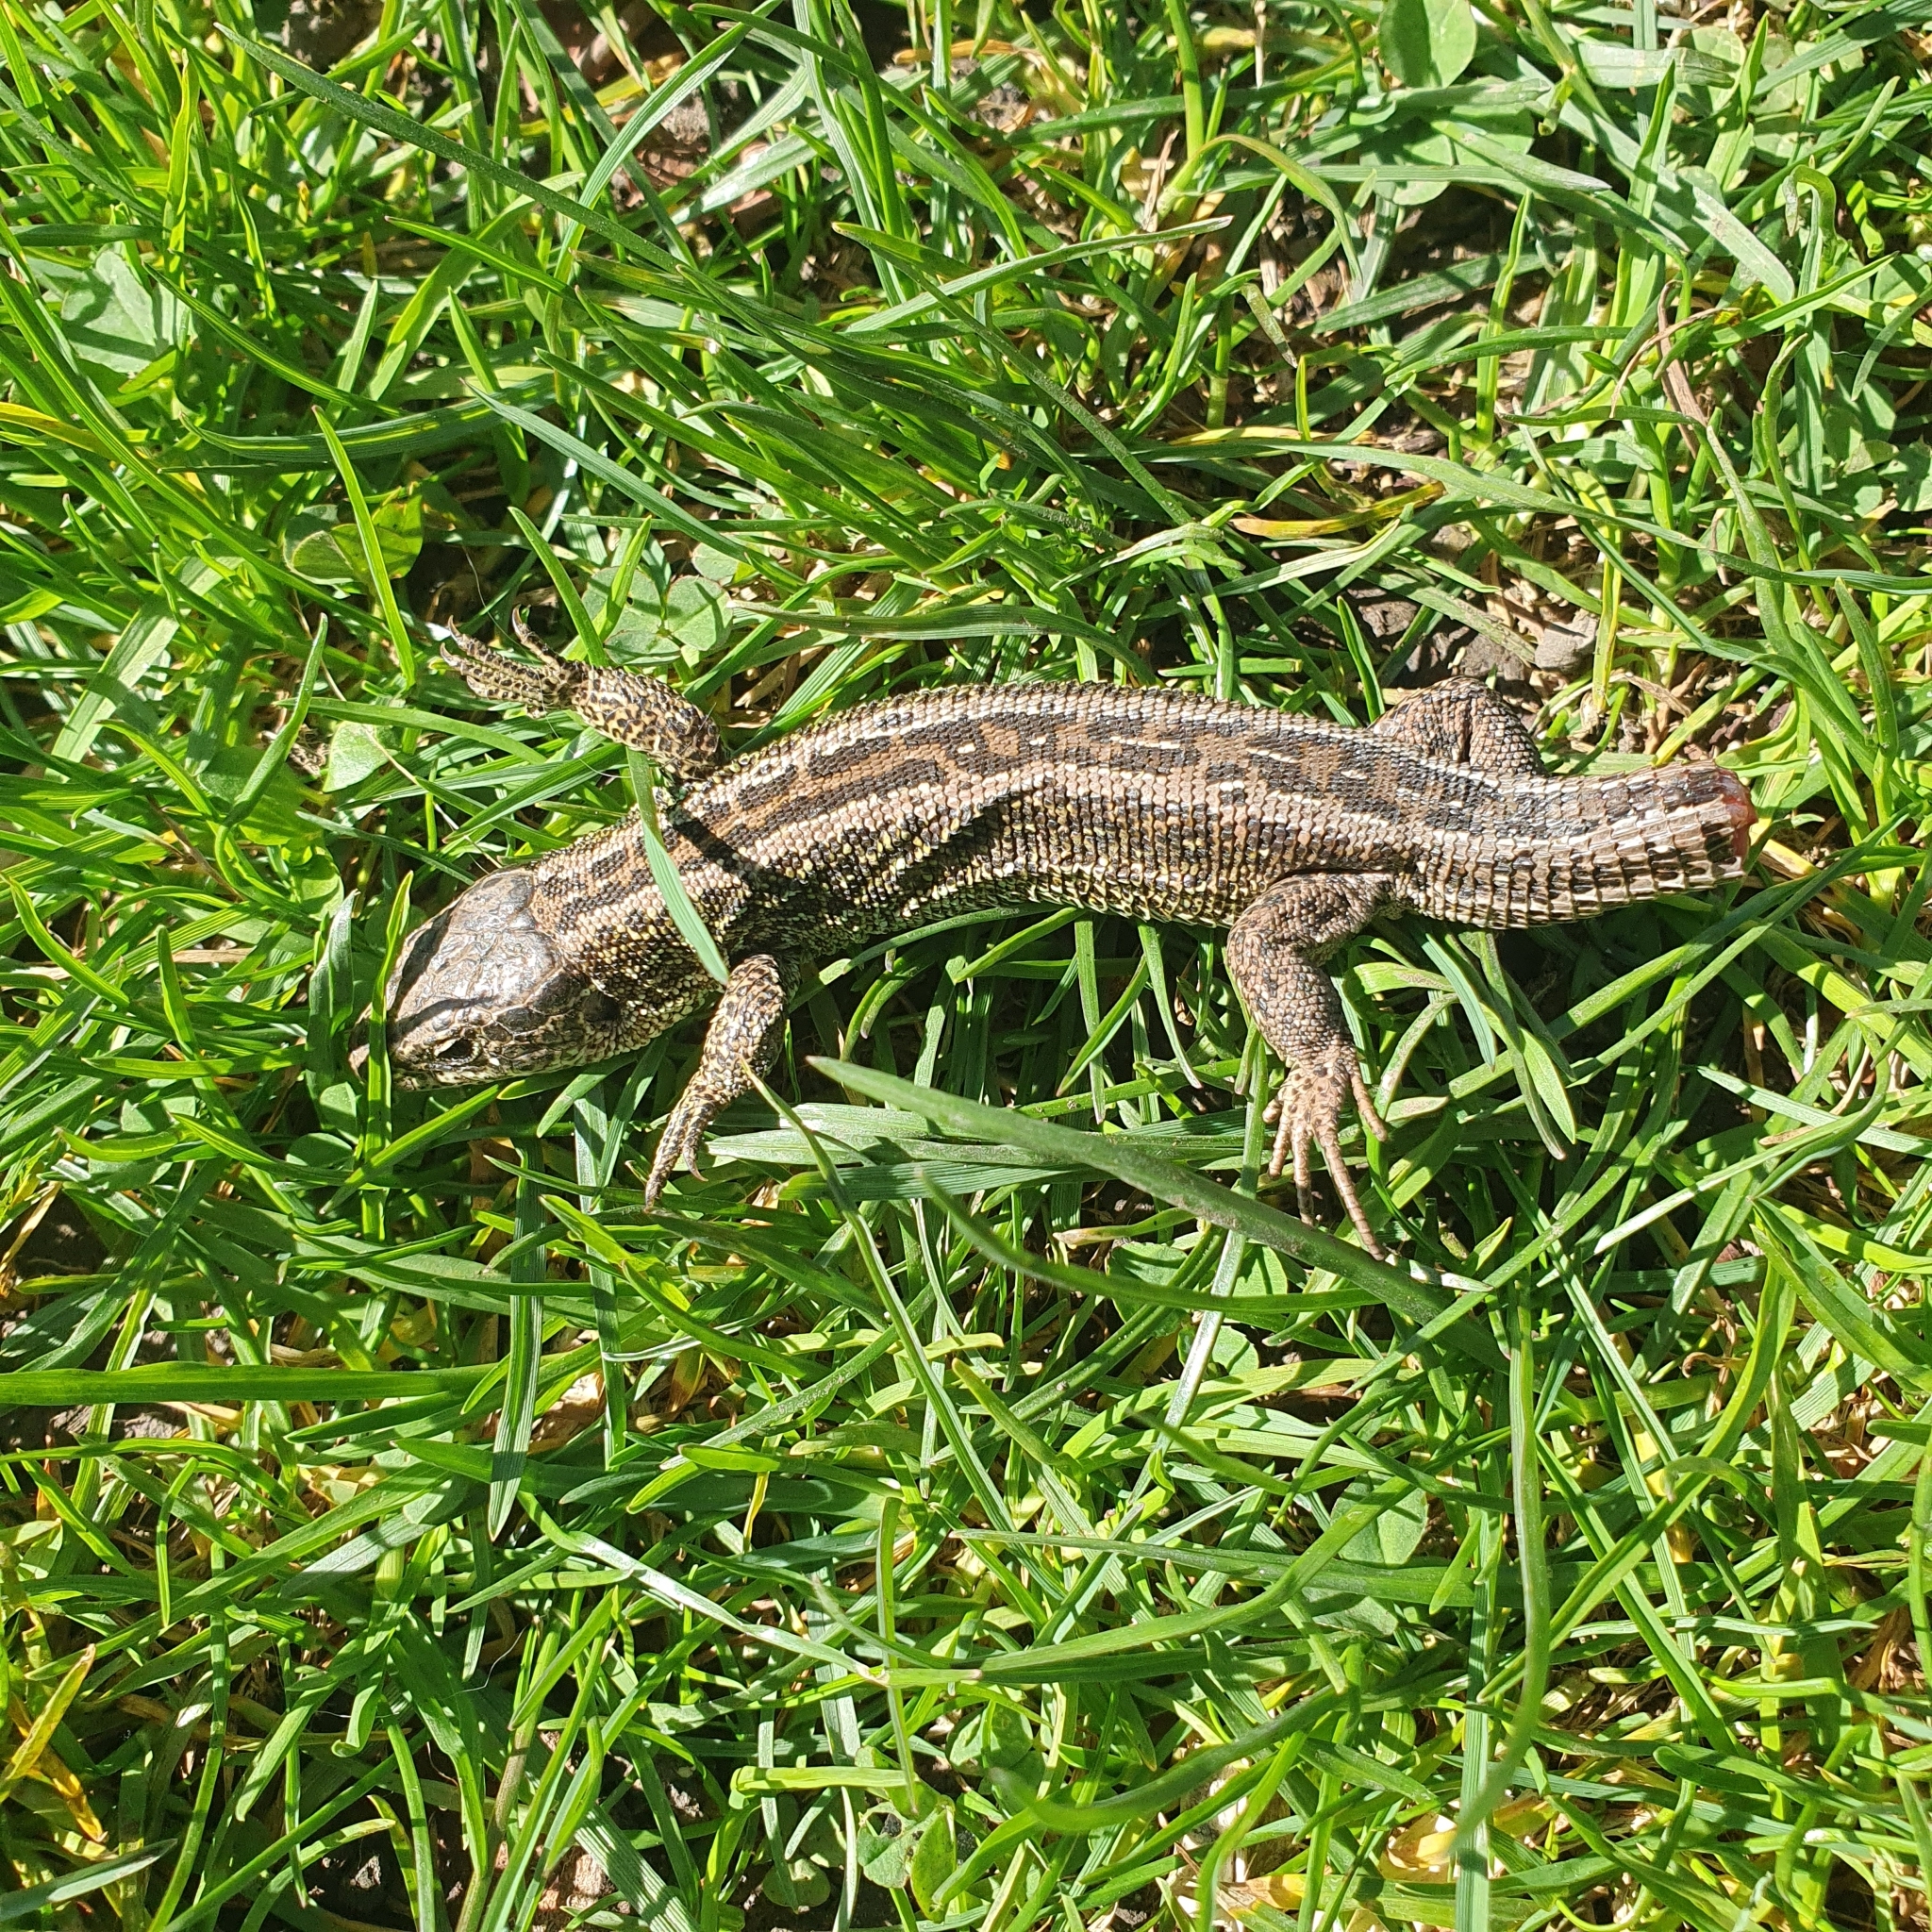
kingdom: Animalia
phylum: Chordata
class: Squamata
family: Lacertidae
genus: Lacerta
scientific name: Lacerta agilis
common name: Sand lizard
